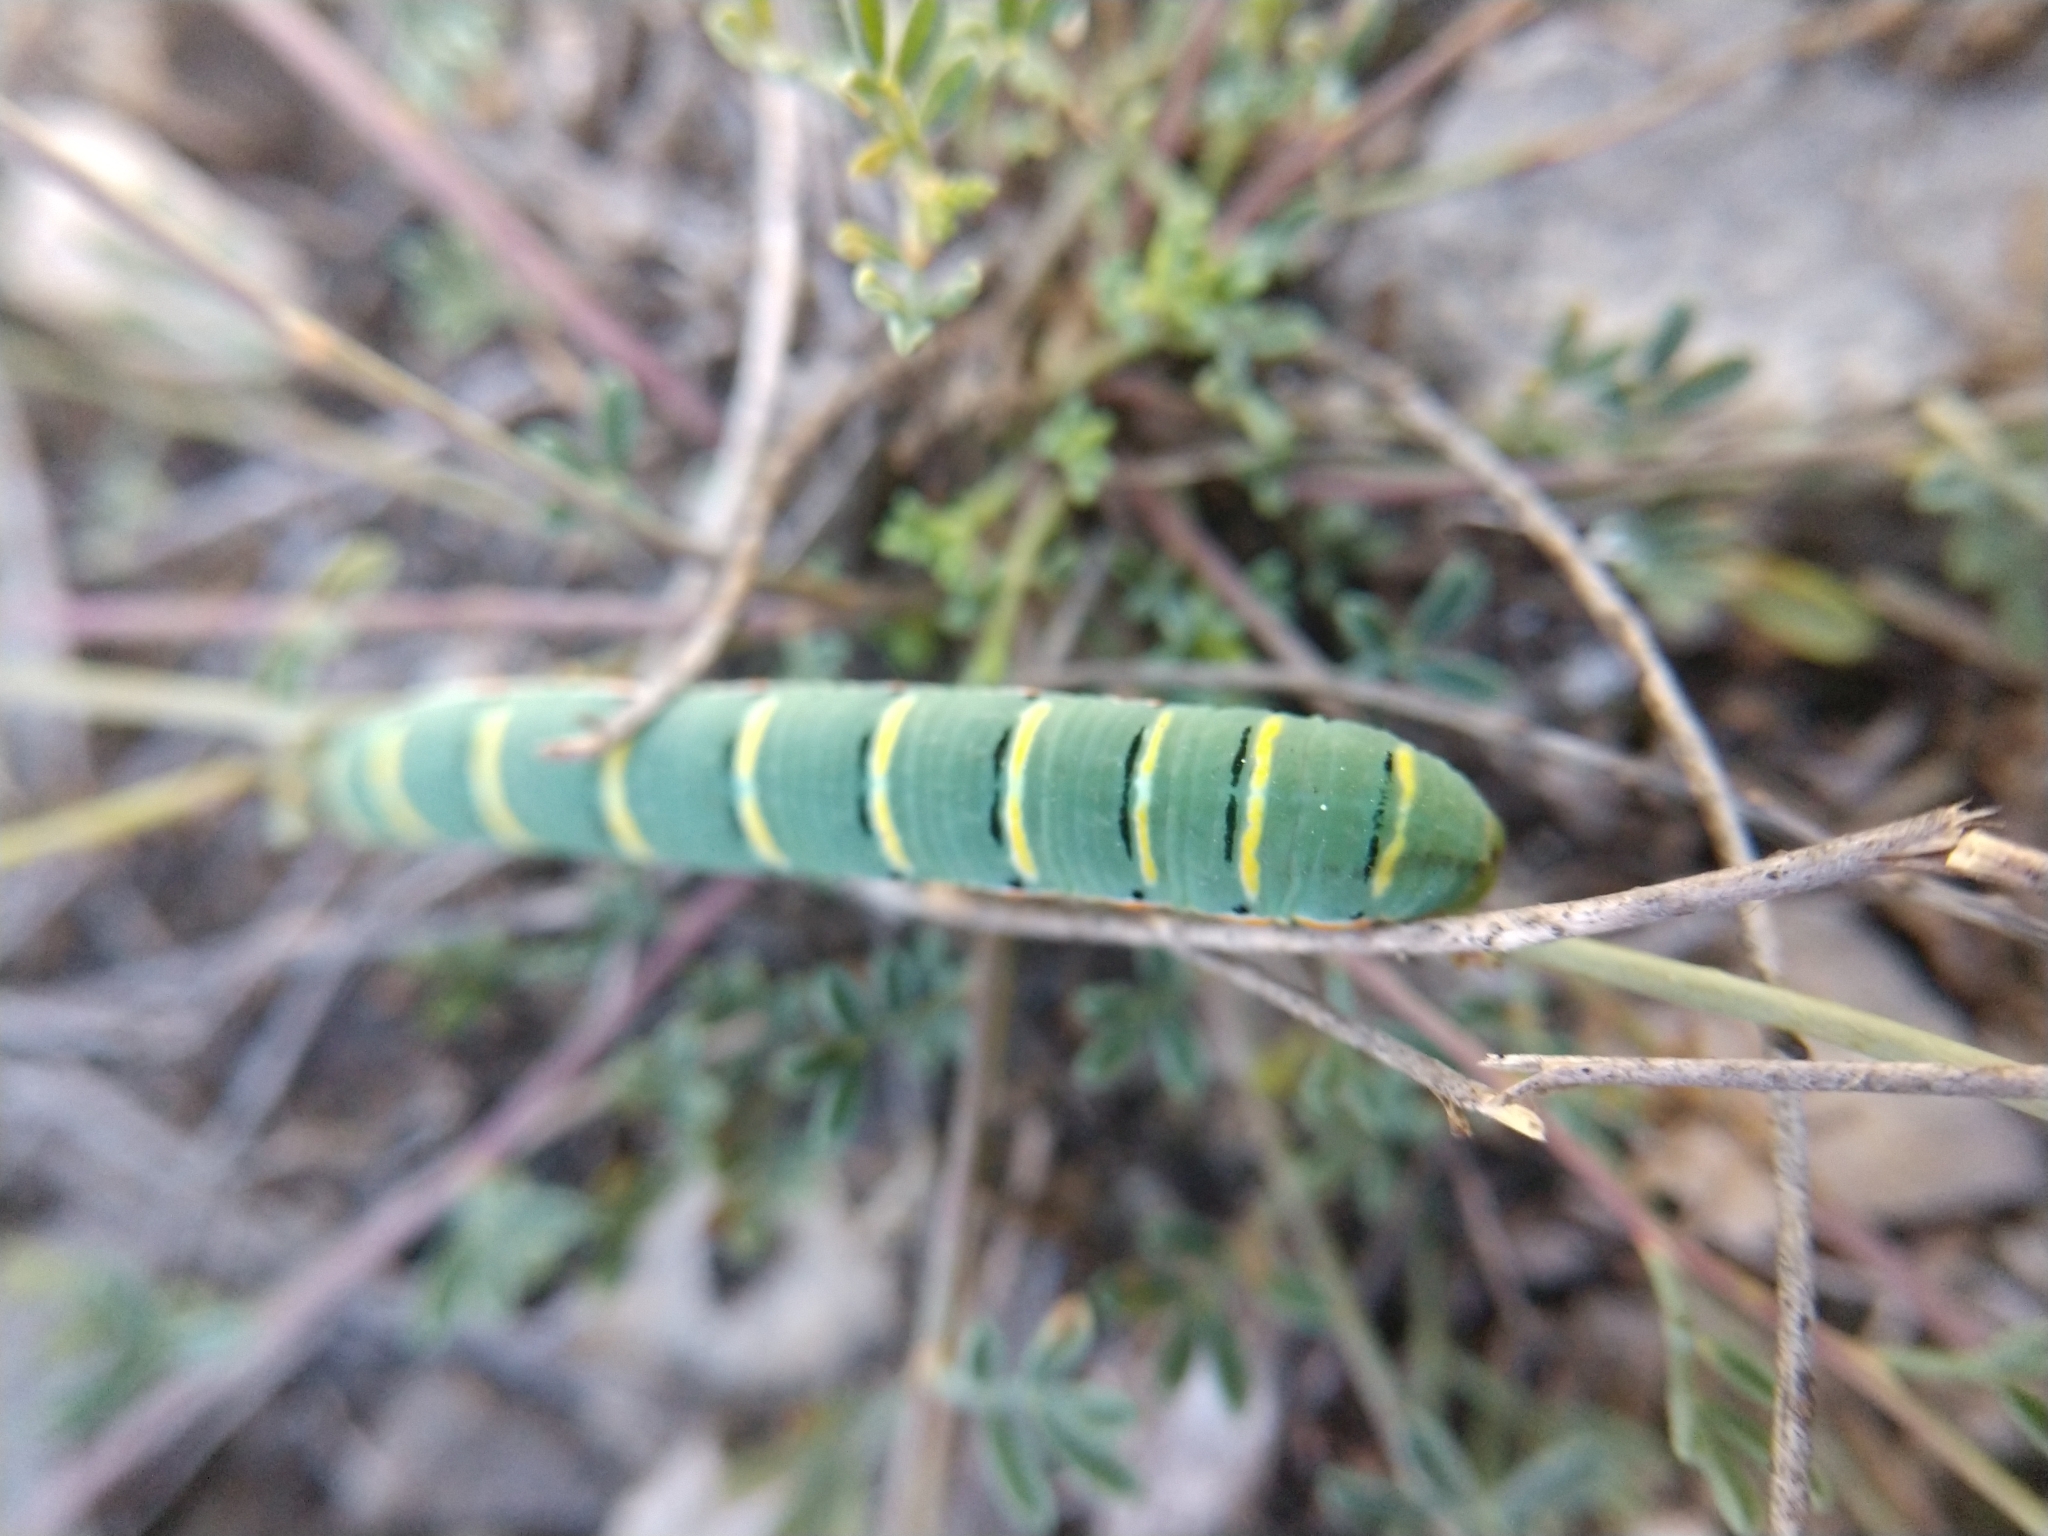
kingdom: Animalia
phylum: Arthropoda
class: Insecta
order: Lepidoptera
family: Pieridae
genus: Zerene
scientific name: Zerene cesonia
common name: Southern dogface
